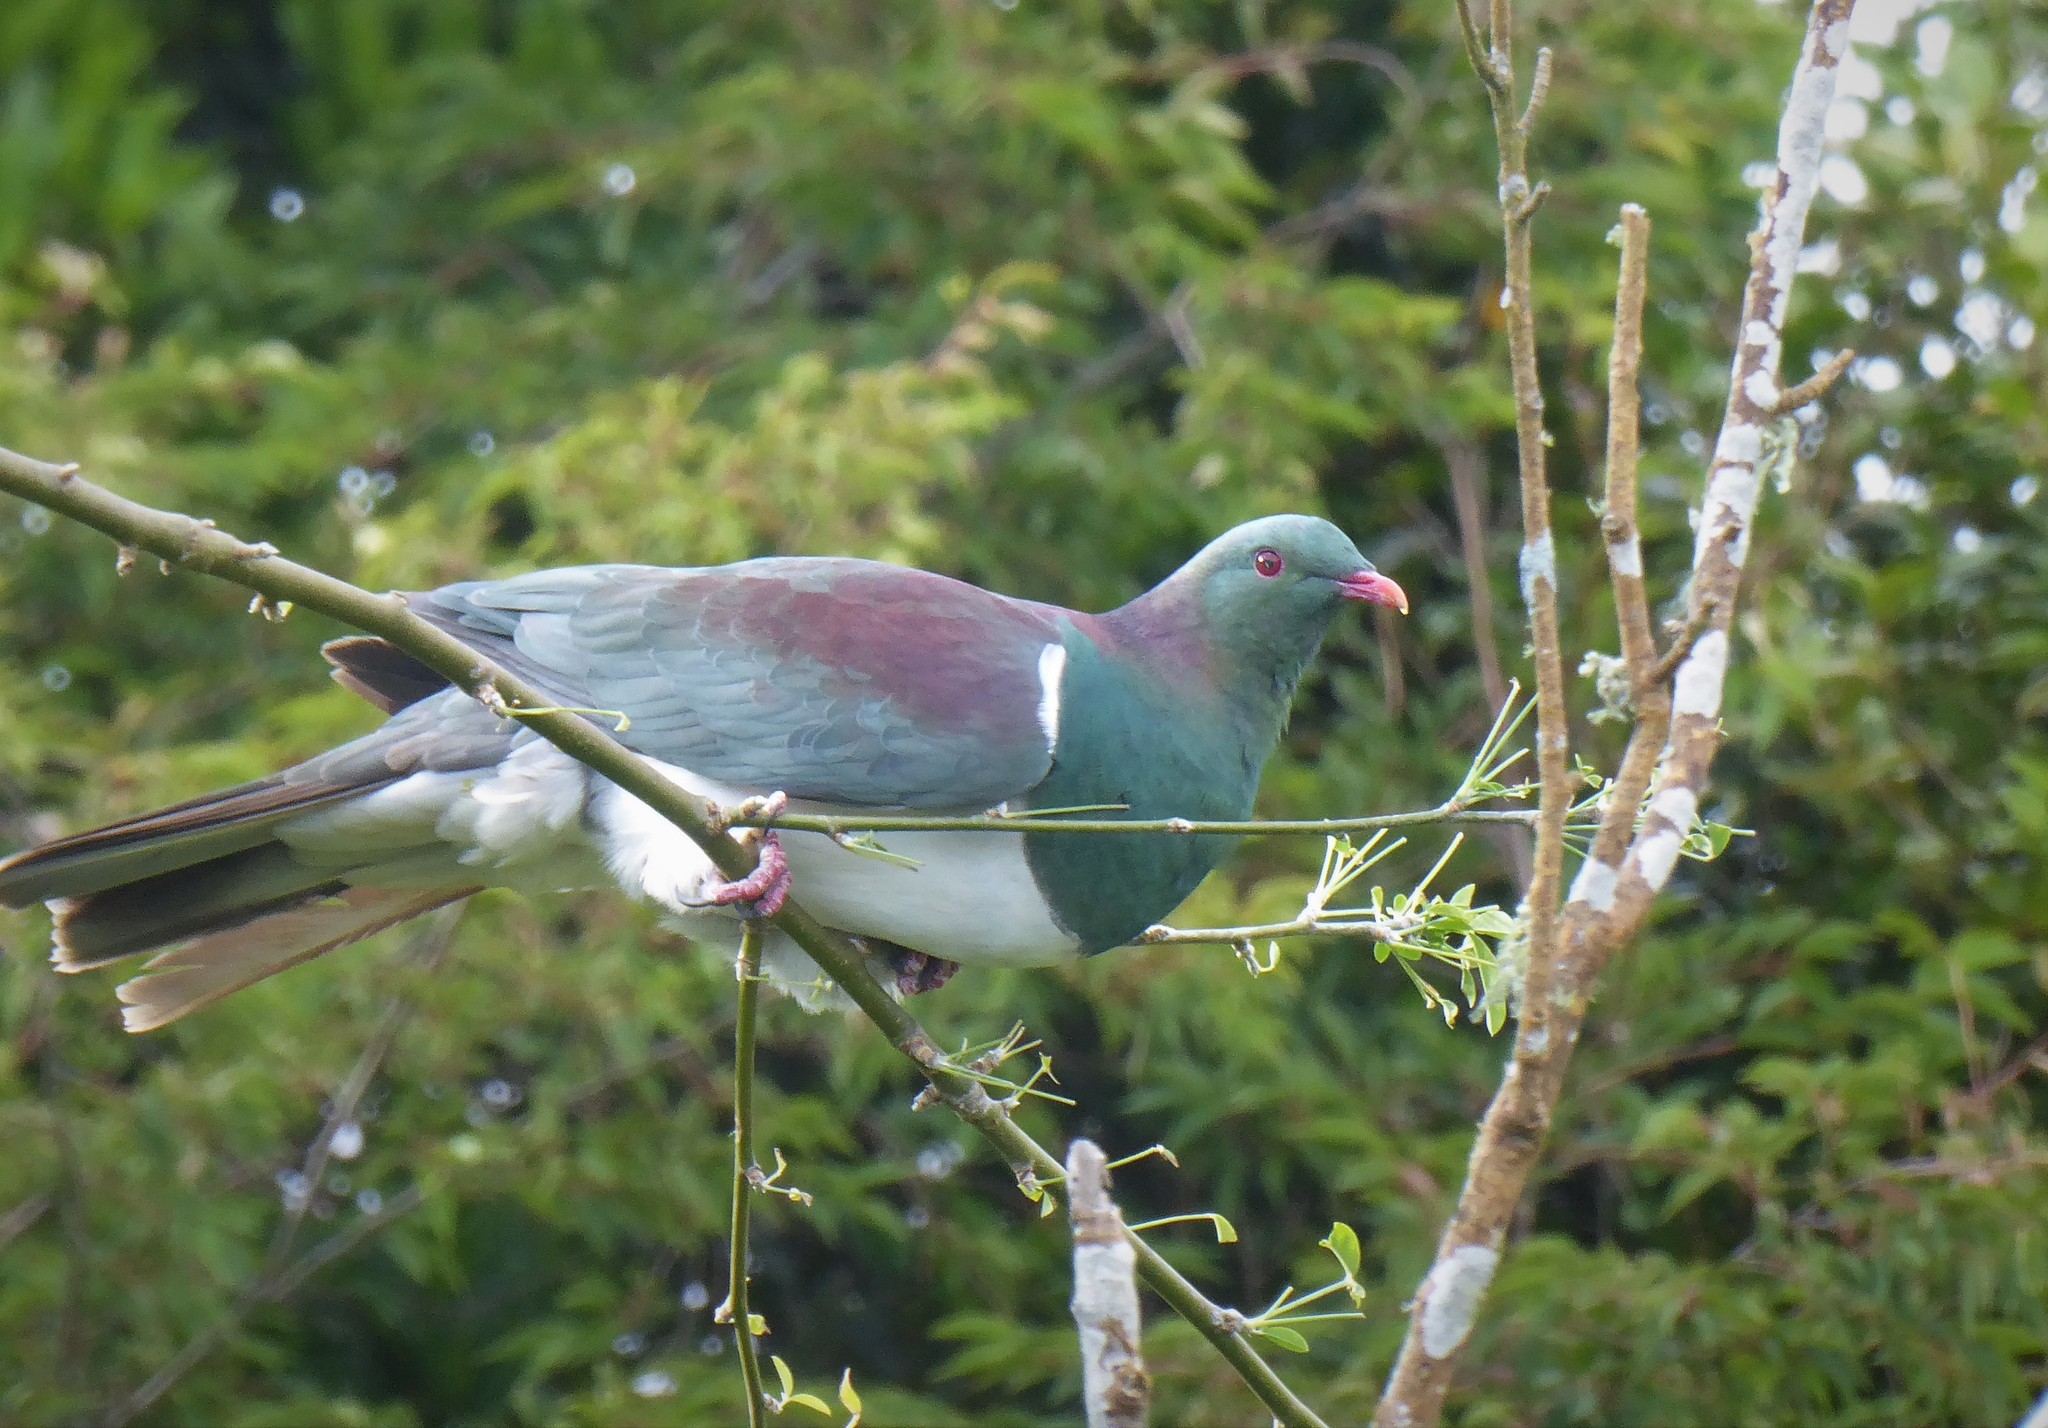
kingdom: Animalia
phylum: Chordata
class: Aves
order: Columbiformes
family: Columbidae
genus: Hemiphaga
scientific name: Hemiphaga novaeseelandiae
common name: New zealand pigeon
